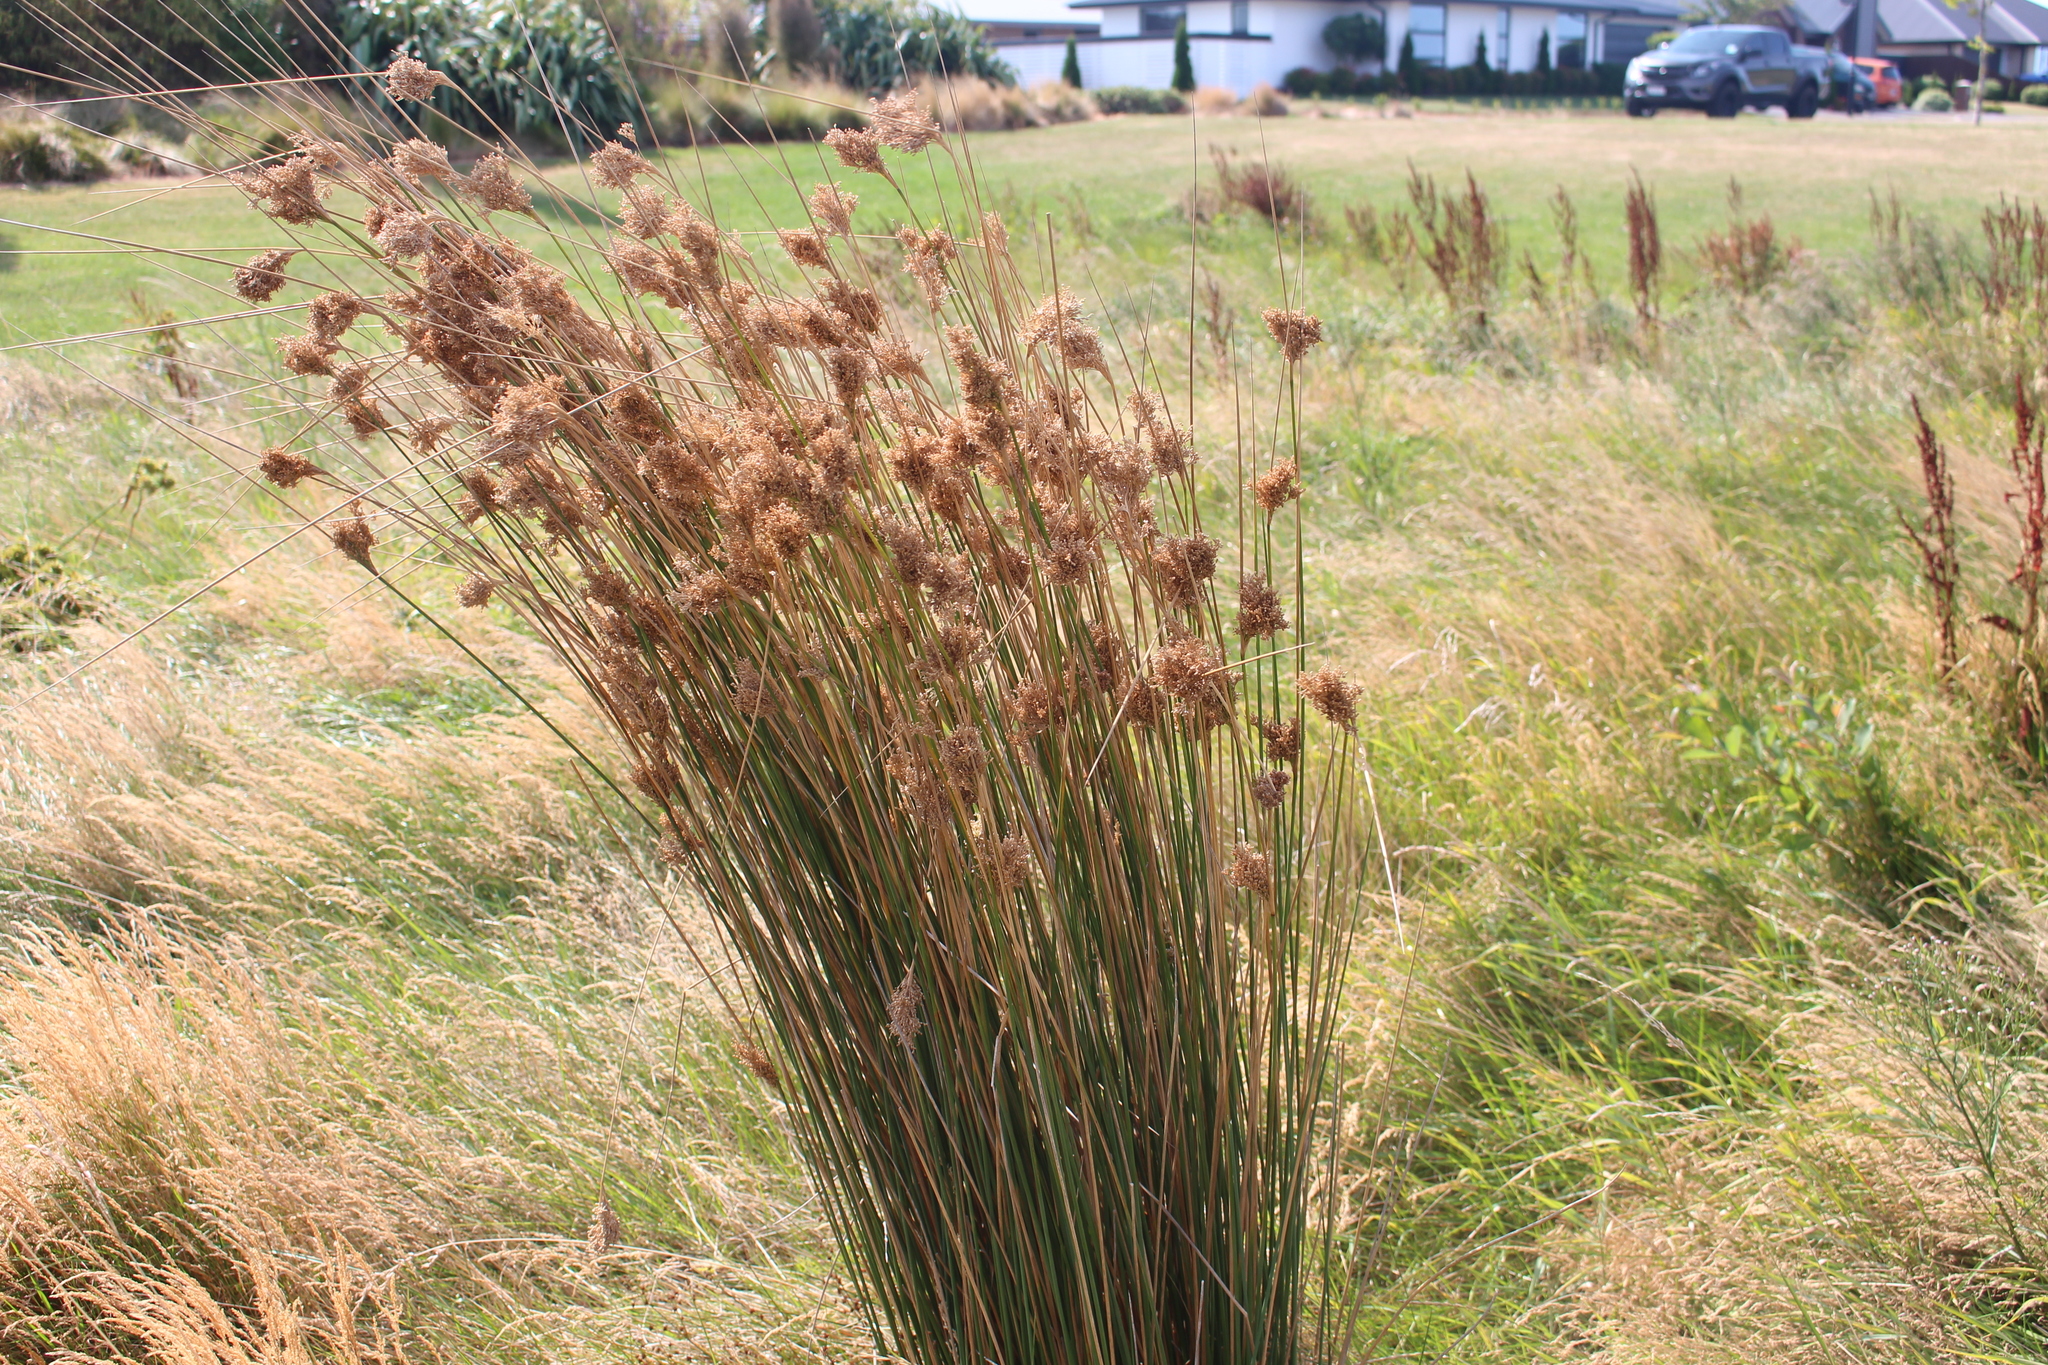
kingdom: Plantae
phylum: Tracheophyta
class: Liliopsida
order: Poales
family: Juncaceae
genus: Juncus
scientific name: Juncus sarophorus
